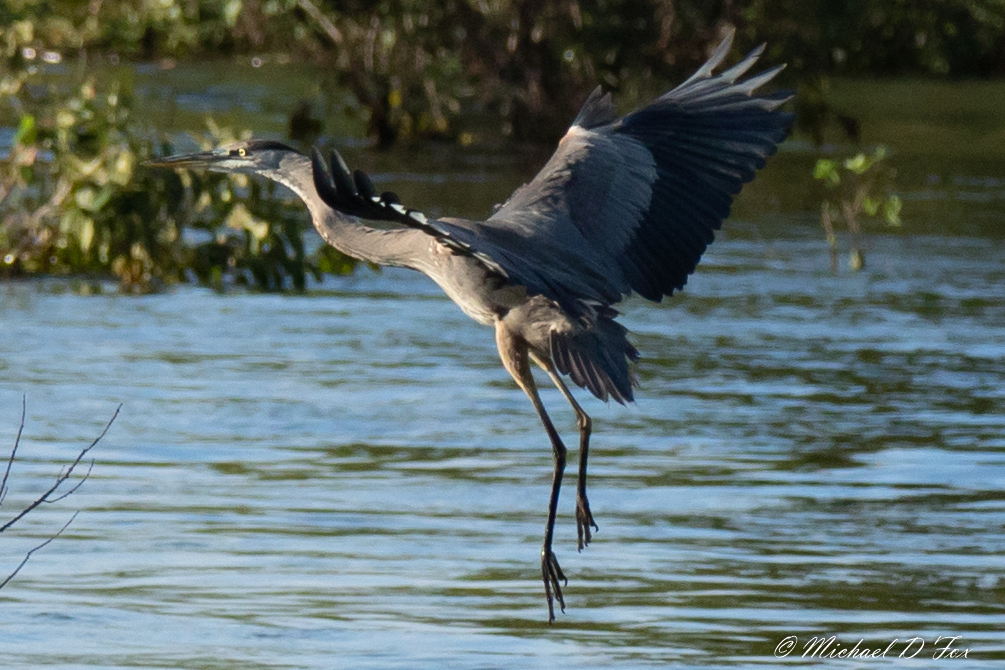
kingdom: Animalia
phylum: Chordata
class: Aves
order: Pelecaniformes
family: Ardeidae
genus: Ardea
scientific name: Ardea herodias
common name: Great blue heron
